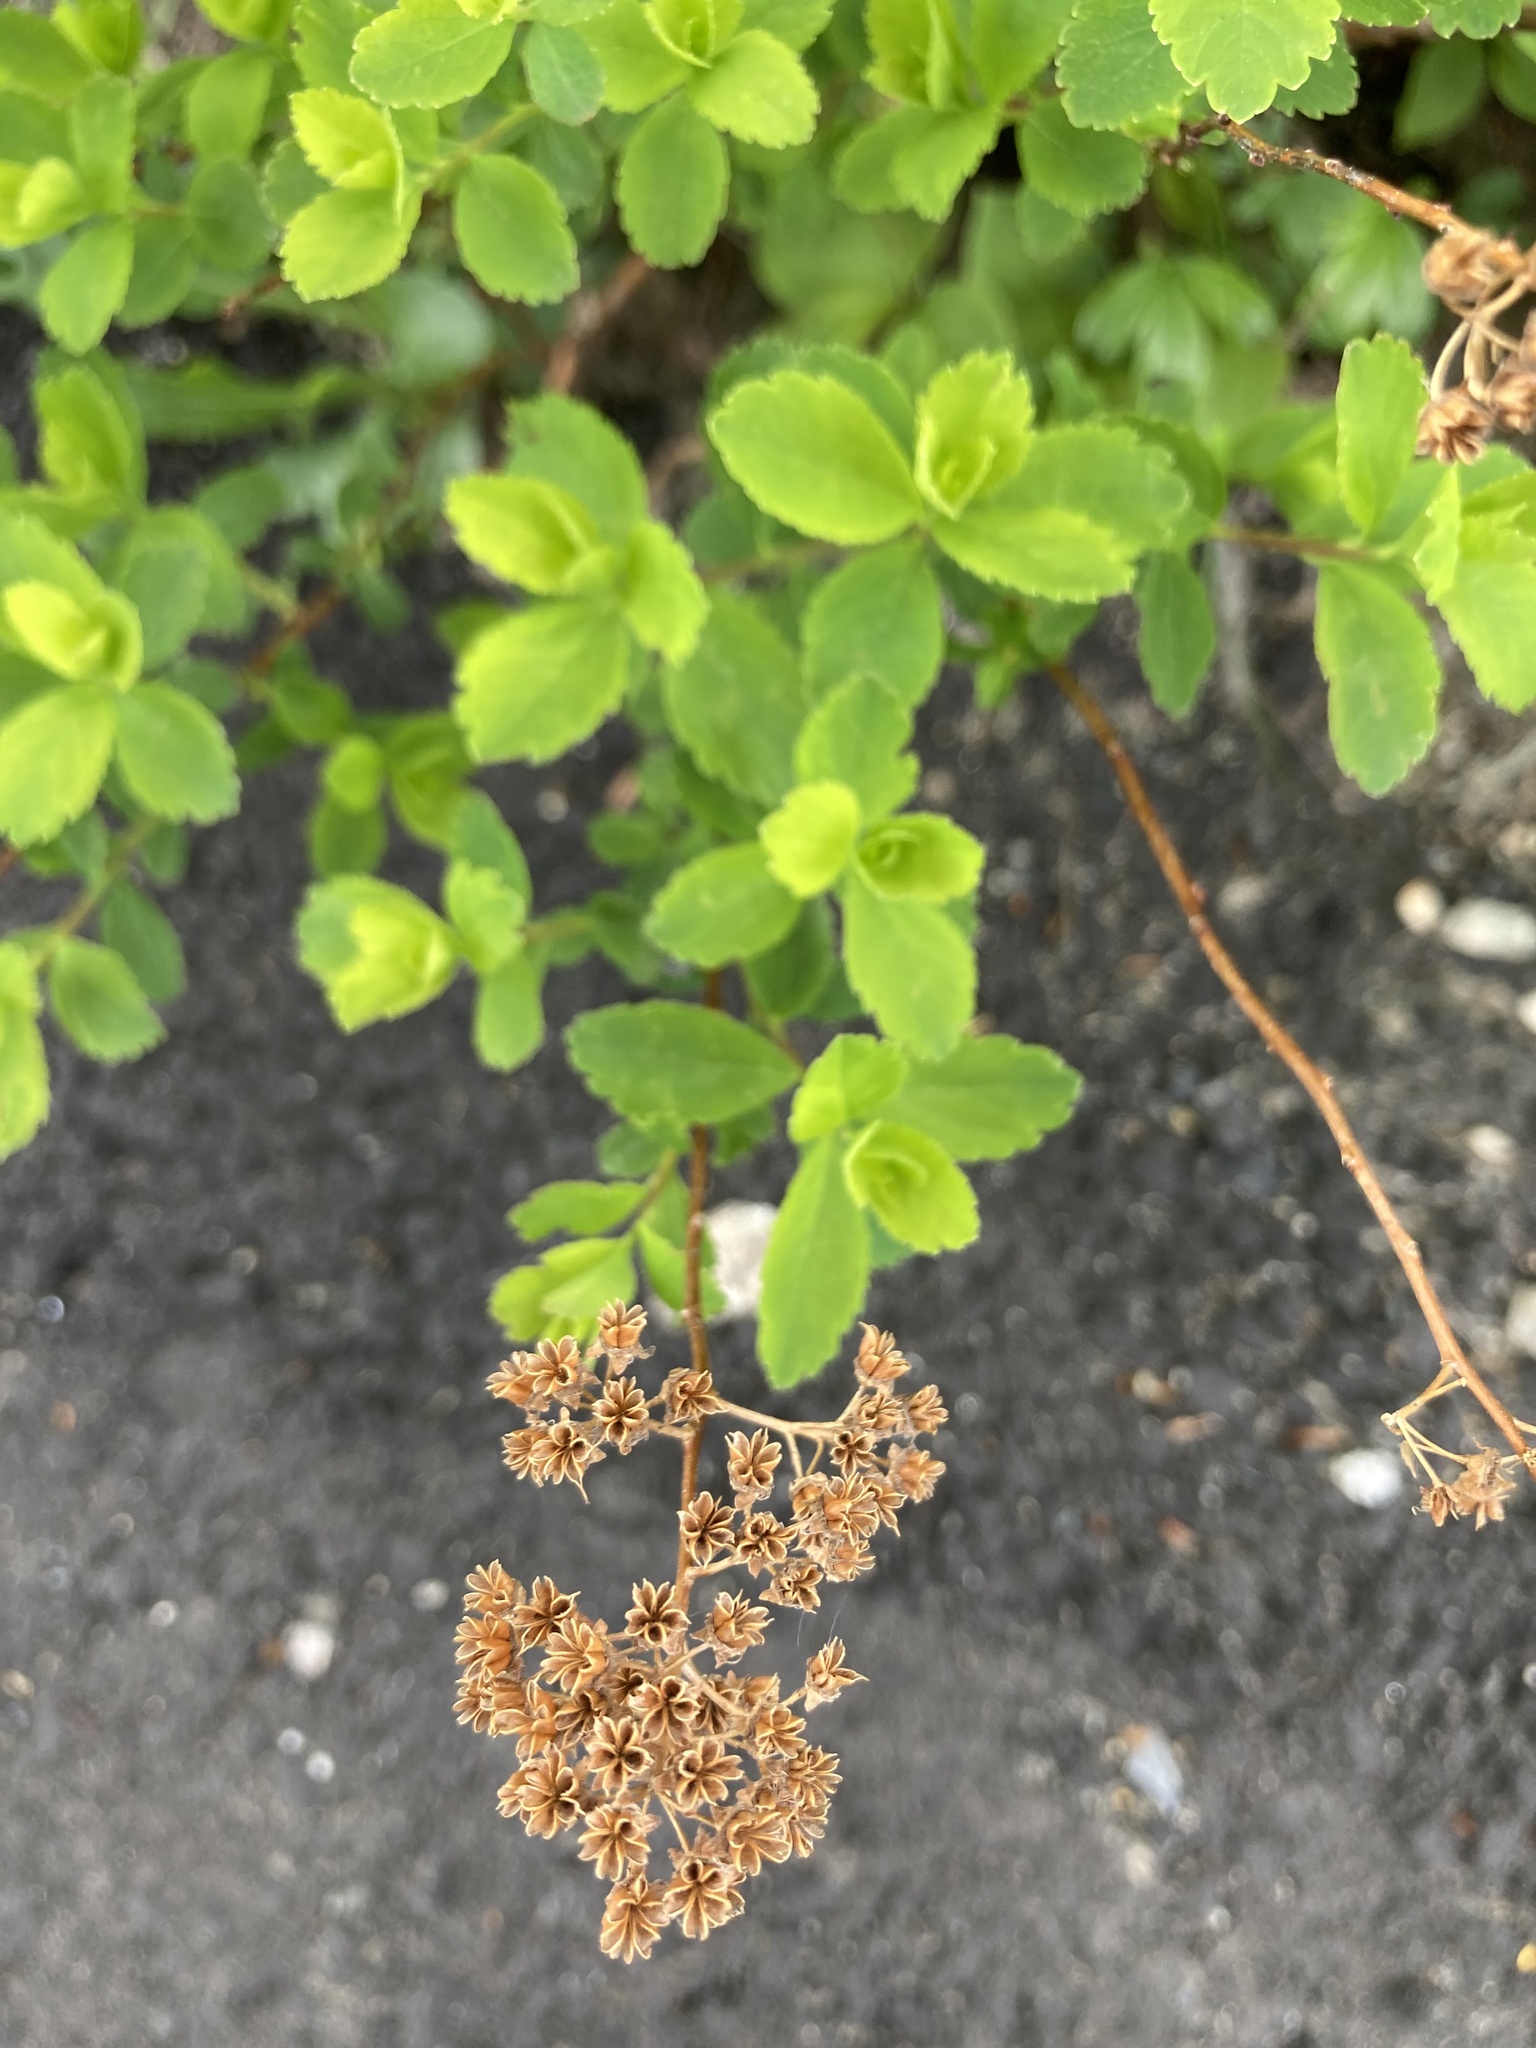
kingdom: Plantae
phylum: Tracheophyta
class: Magnoliopsida
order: Rosales
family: Rosaceae
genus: Spiraea
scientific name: Spiraea alba
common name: Pale bridewort
